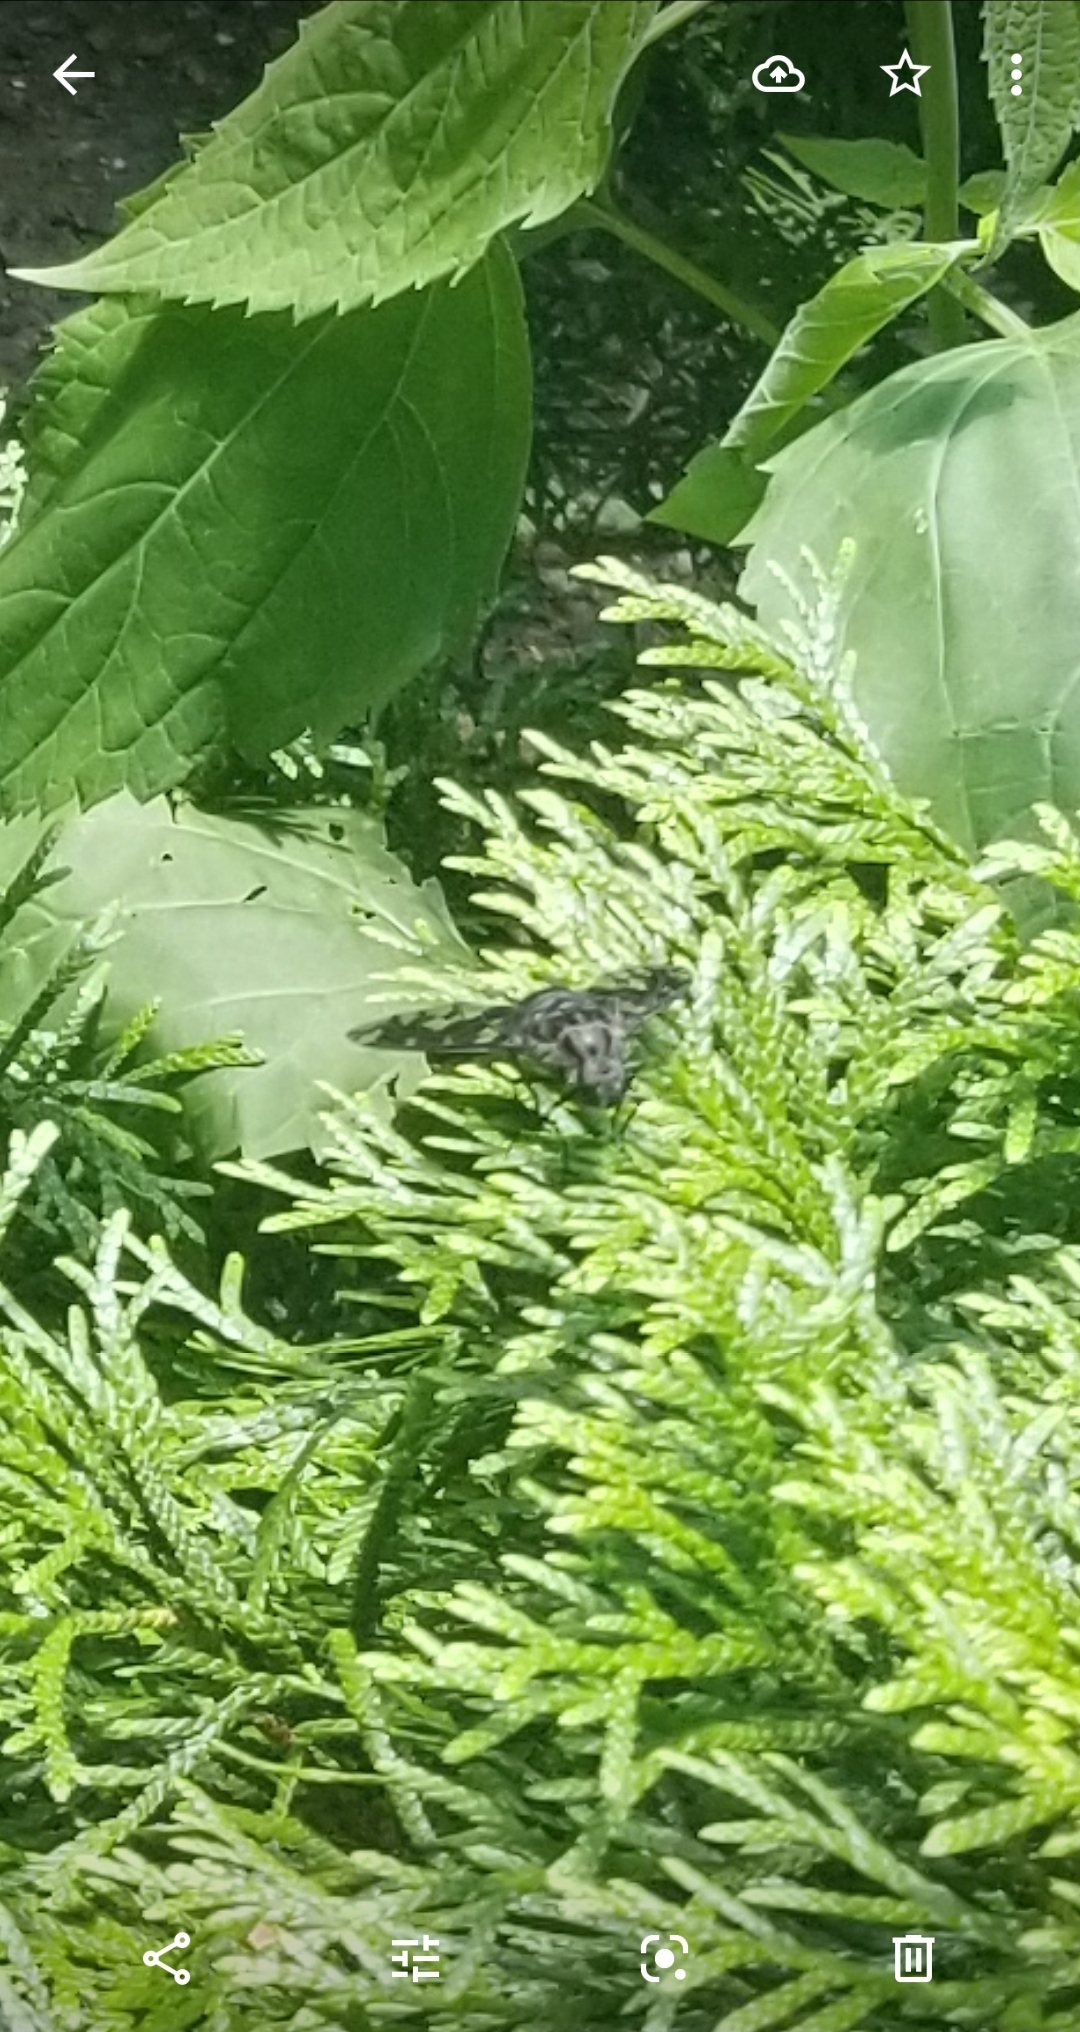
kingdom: Animalia
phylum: Arthropoda
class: Insecta
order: Diptera
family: Bombyliidae
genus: Xenox
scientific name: Xenox tigrinus
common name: Tiger bee fly
